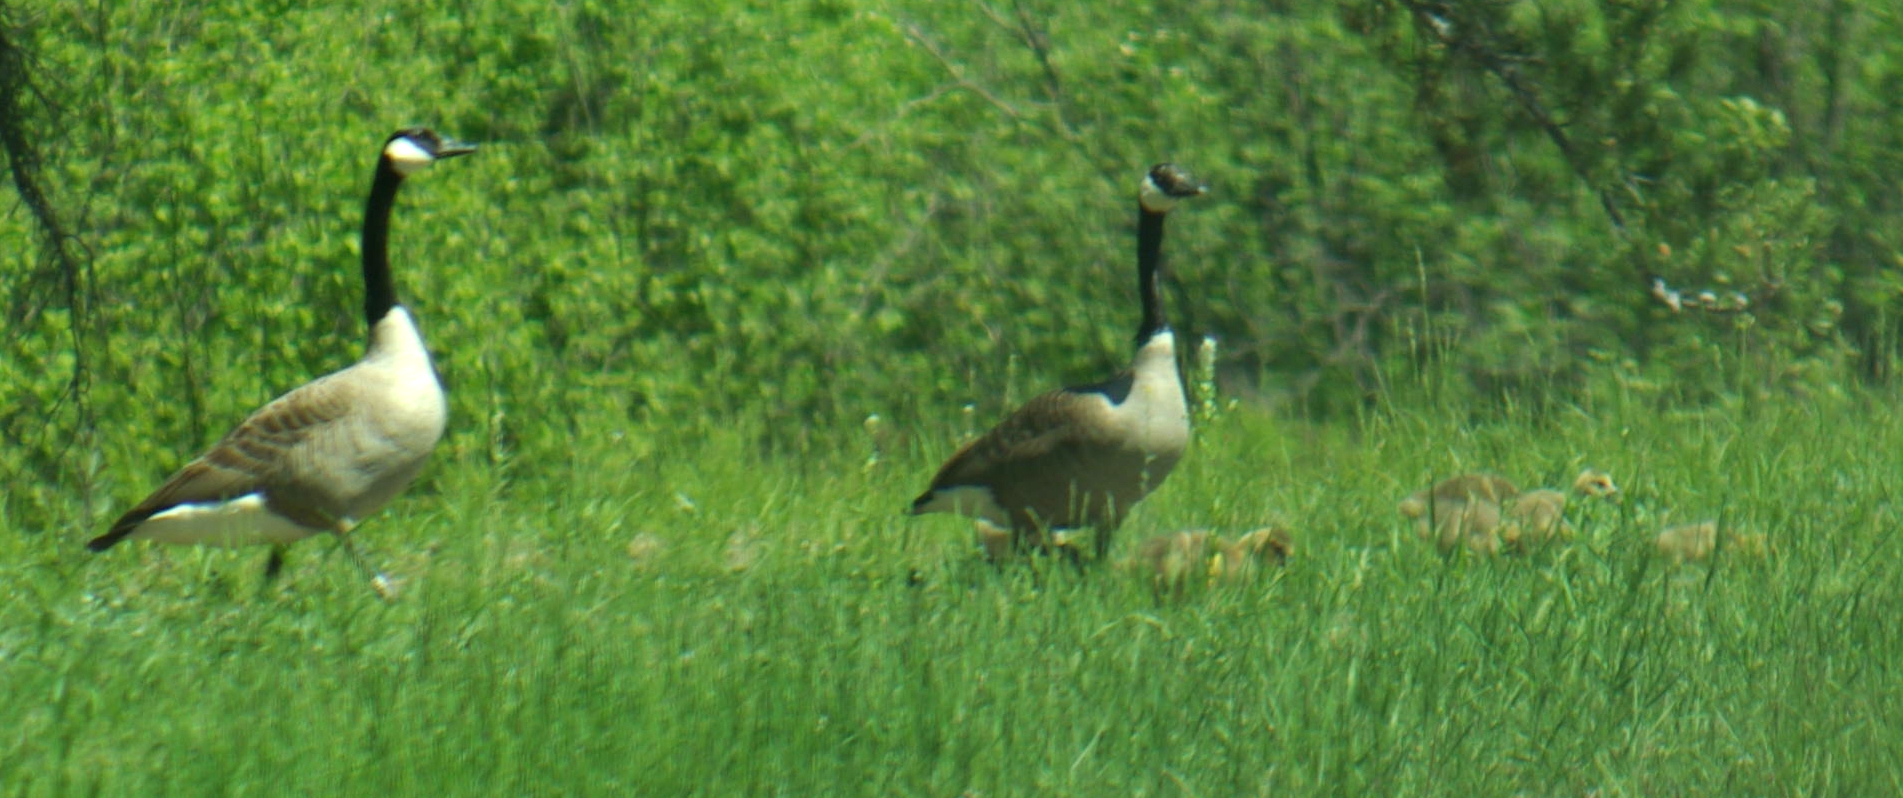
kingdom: Animalia
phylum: Chordata
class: Aves
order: Anseriformes
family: Anatidae
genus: Branta
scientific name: Branta canadensis
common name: Canada goose
